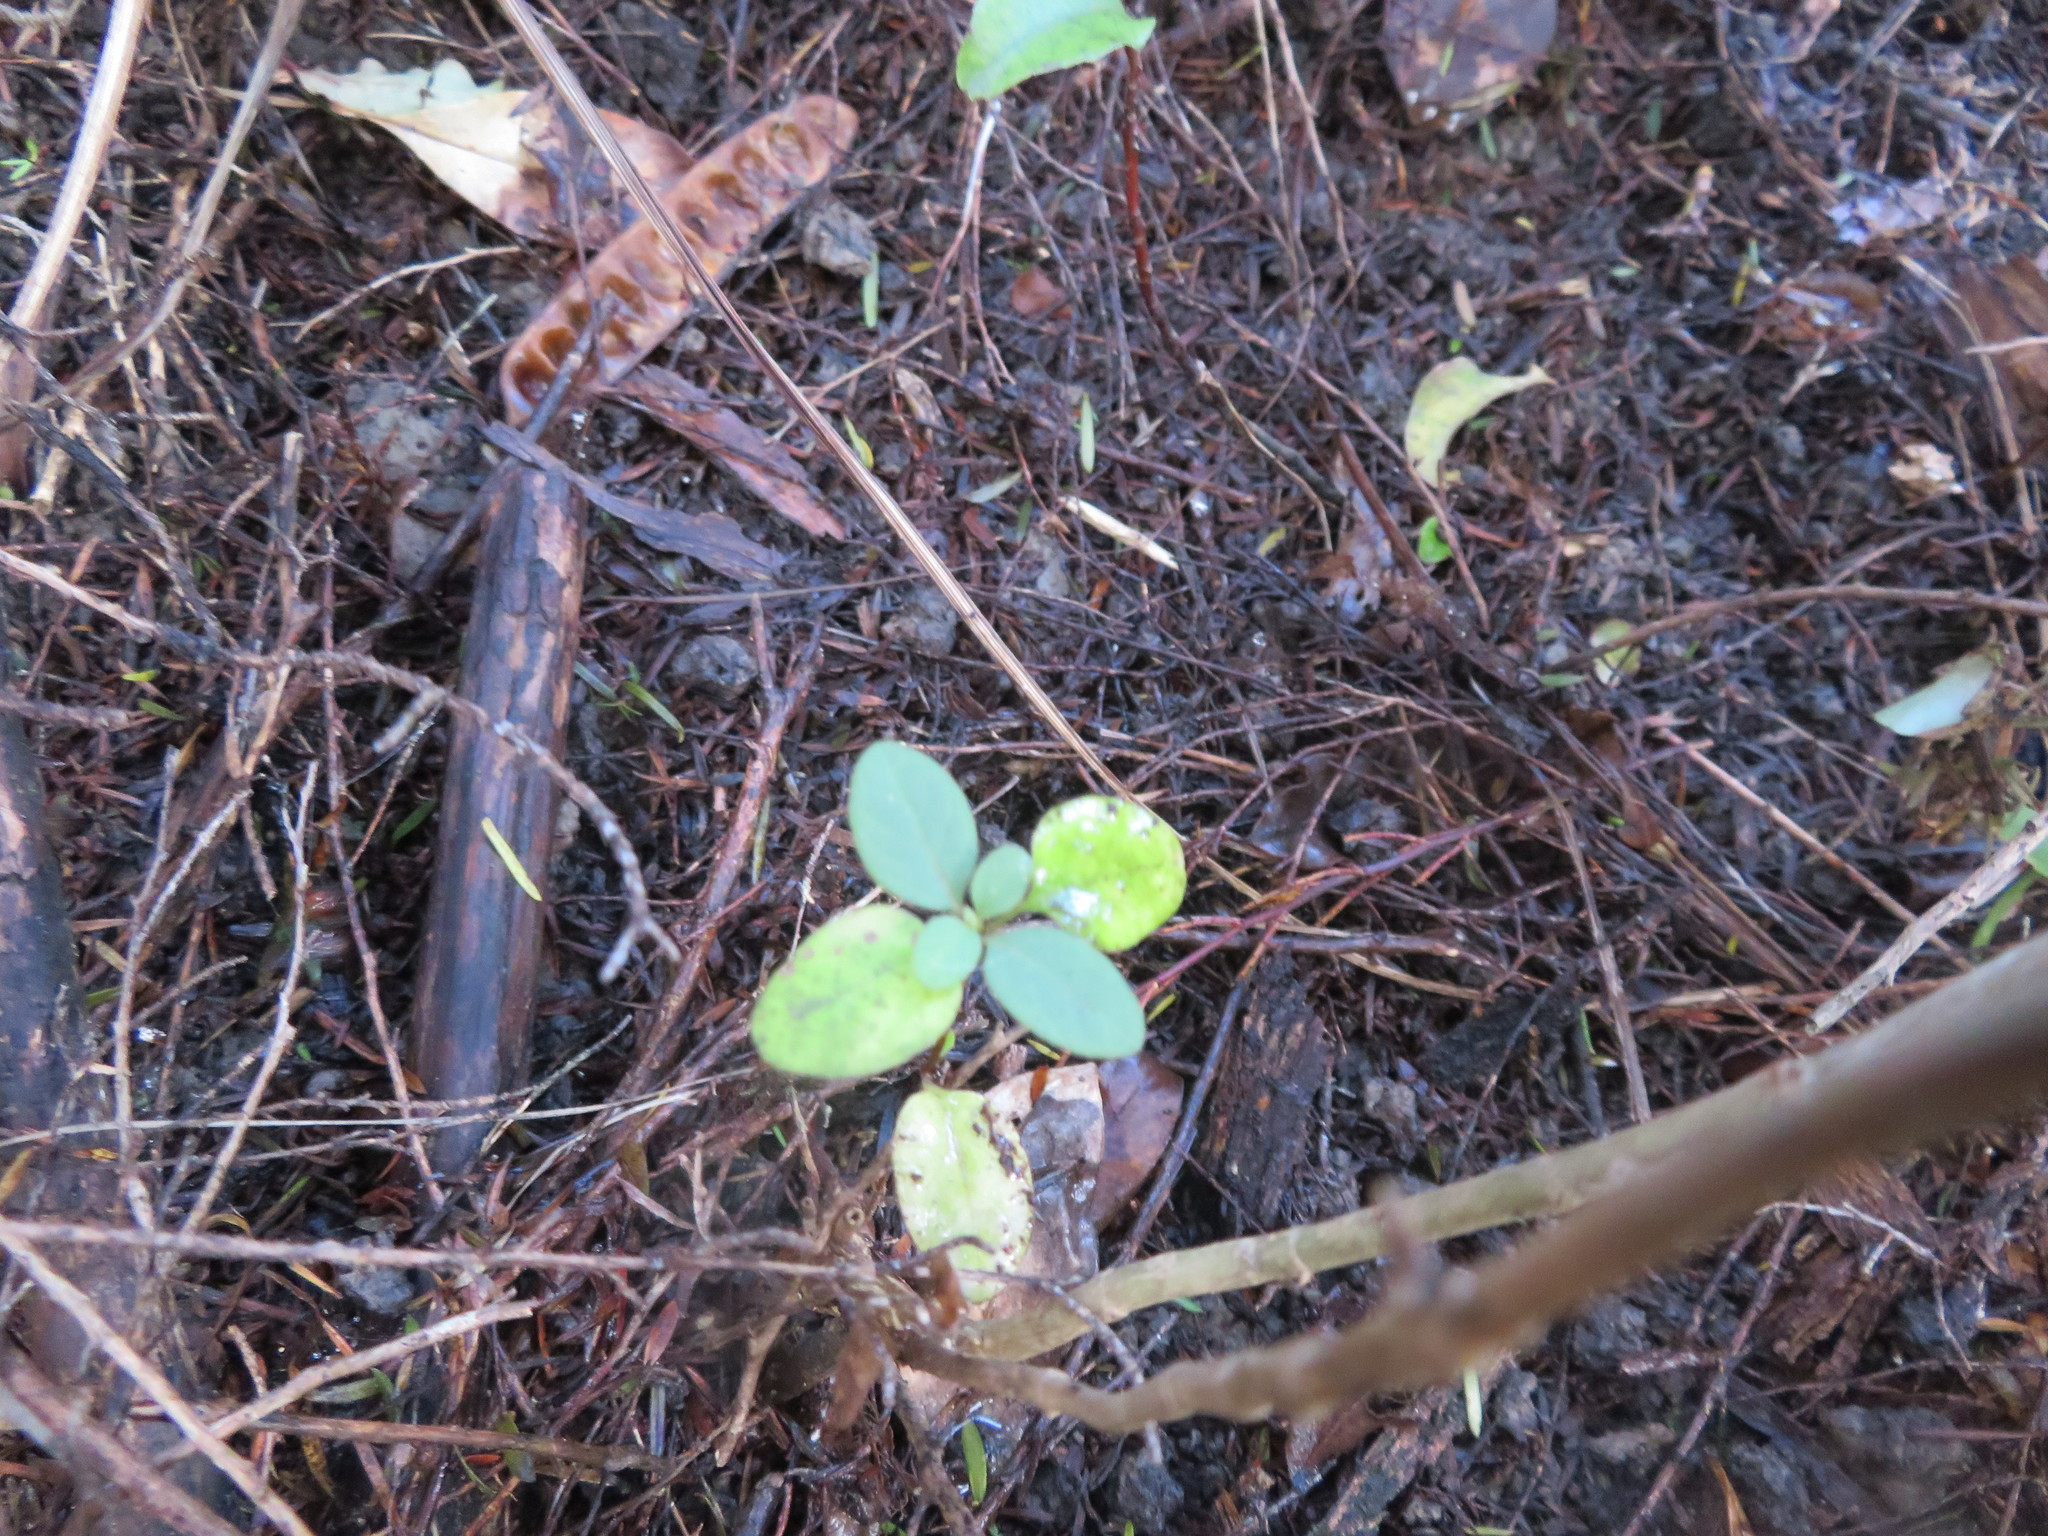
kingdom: Plantae
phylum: Tracheophyta
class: Magnoliopsida
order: Dipsacales
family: Caprifoliaceae
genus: Lonicera
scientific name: Lonicera japonica
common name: Japanese honeysuckle
